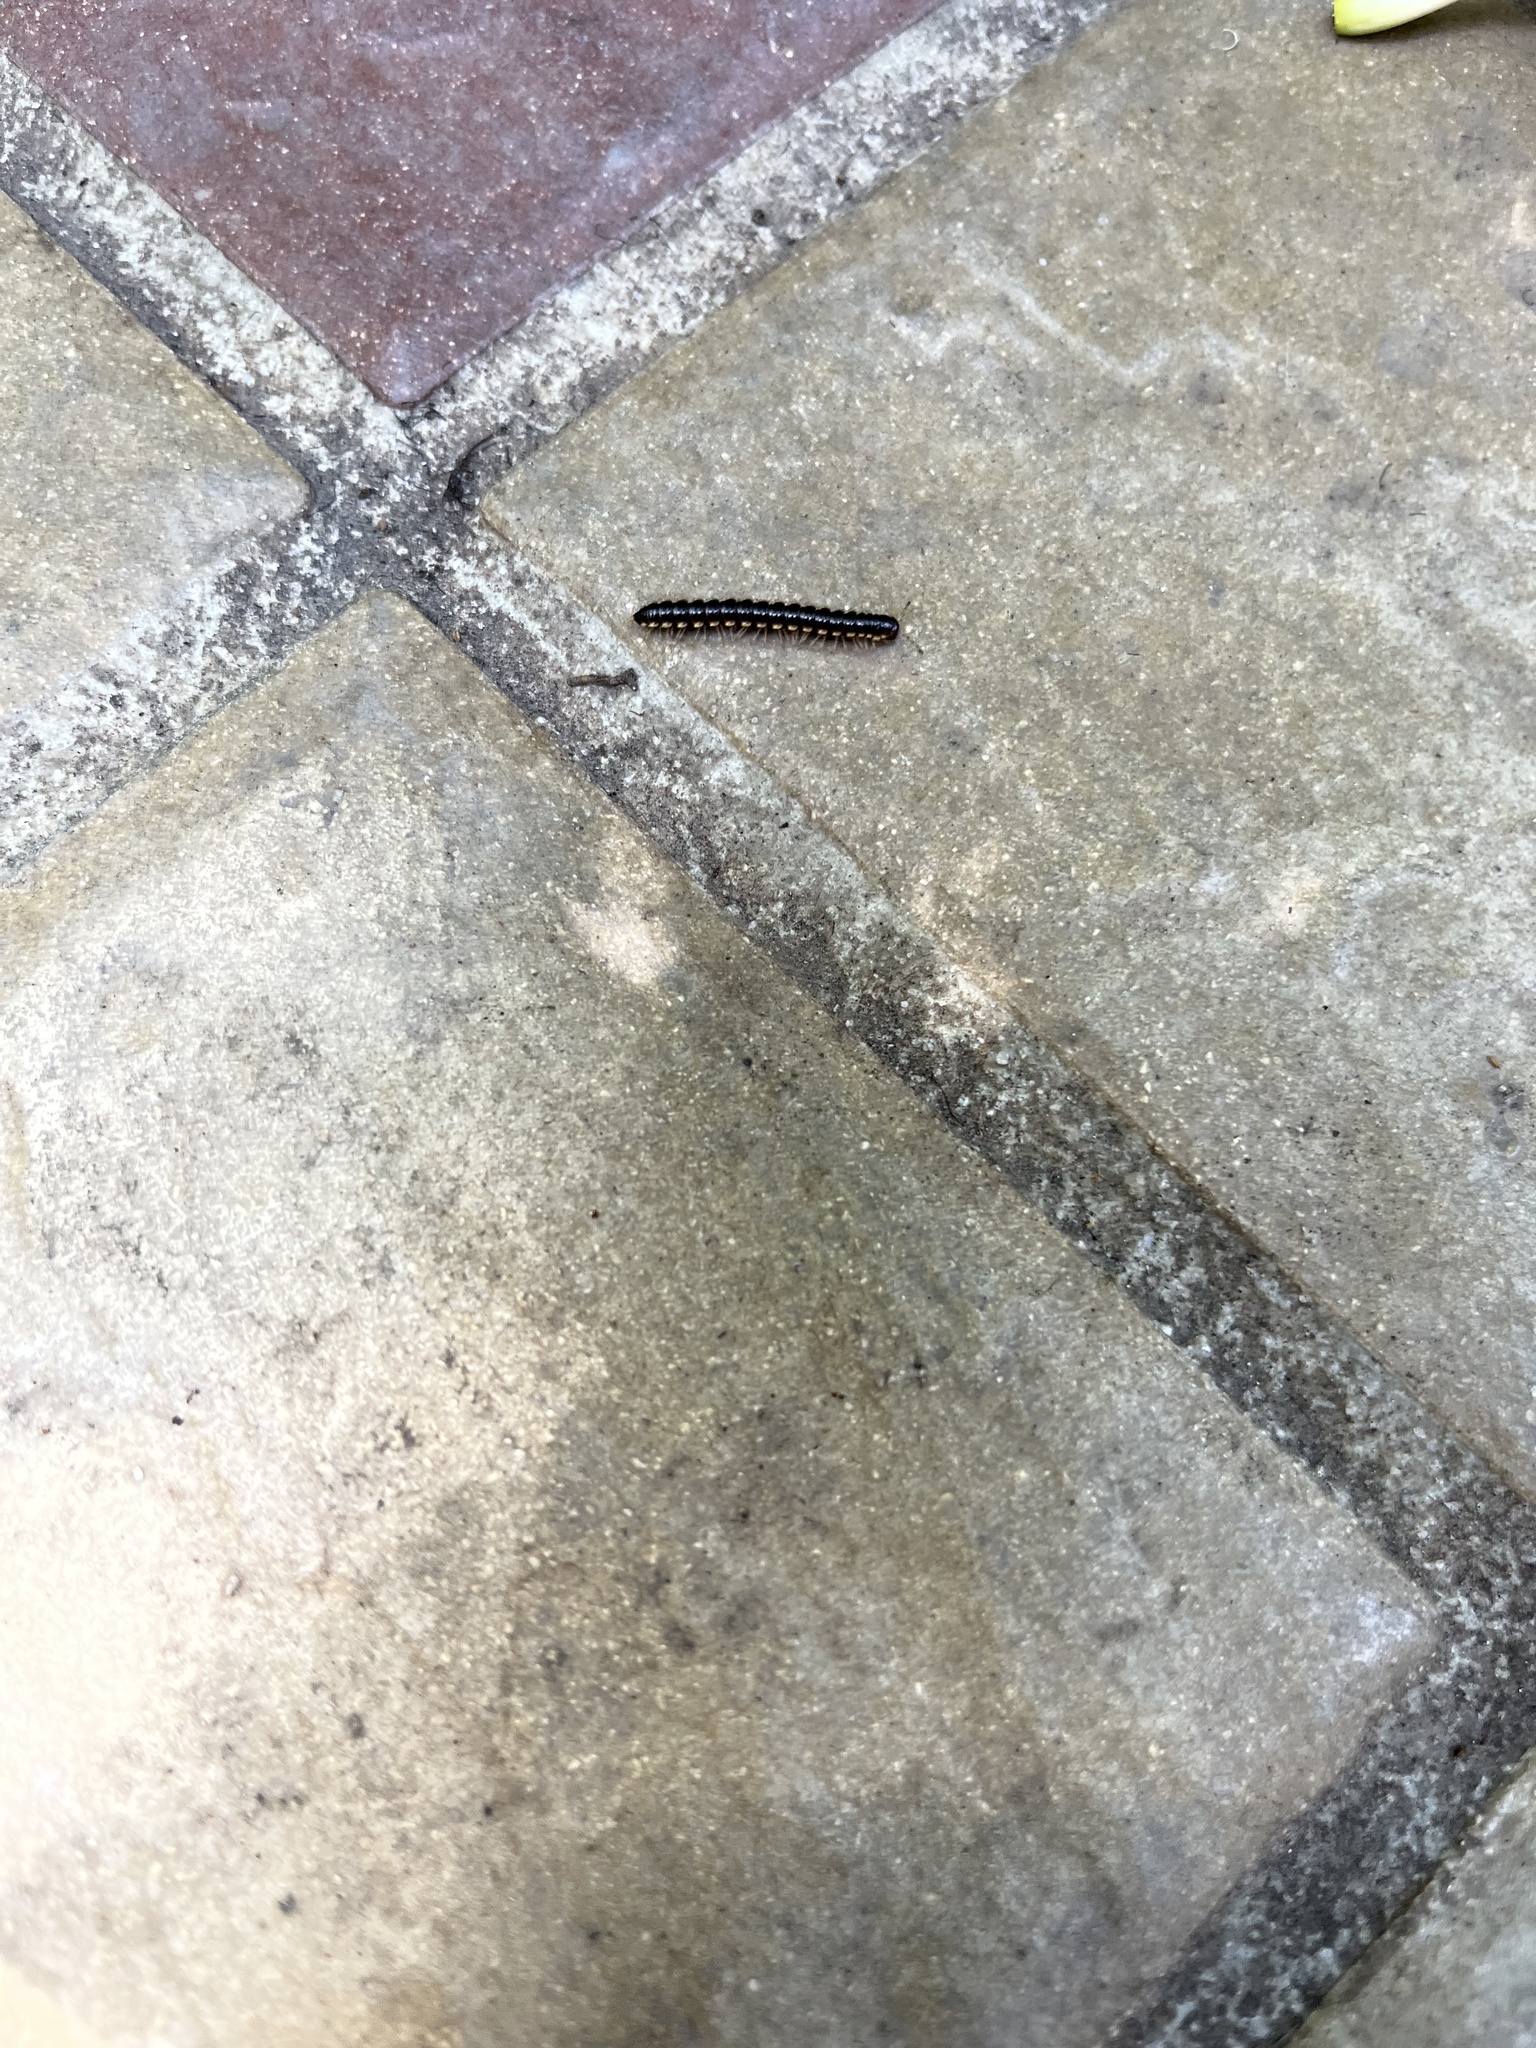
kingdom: Animalia
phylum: Arthropoda
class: Diplopoda
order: Polydesmida
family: Paradoxosomatidae
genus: Orthomorpha
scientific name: Orthomorpha coarctata
